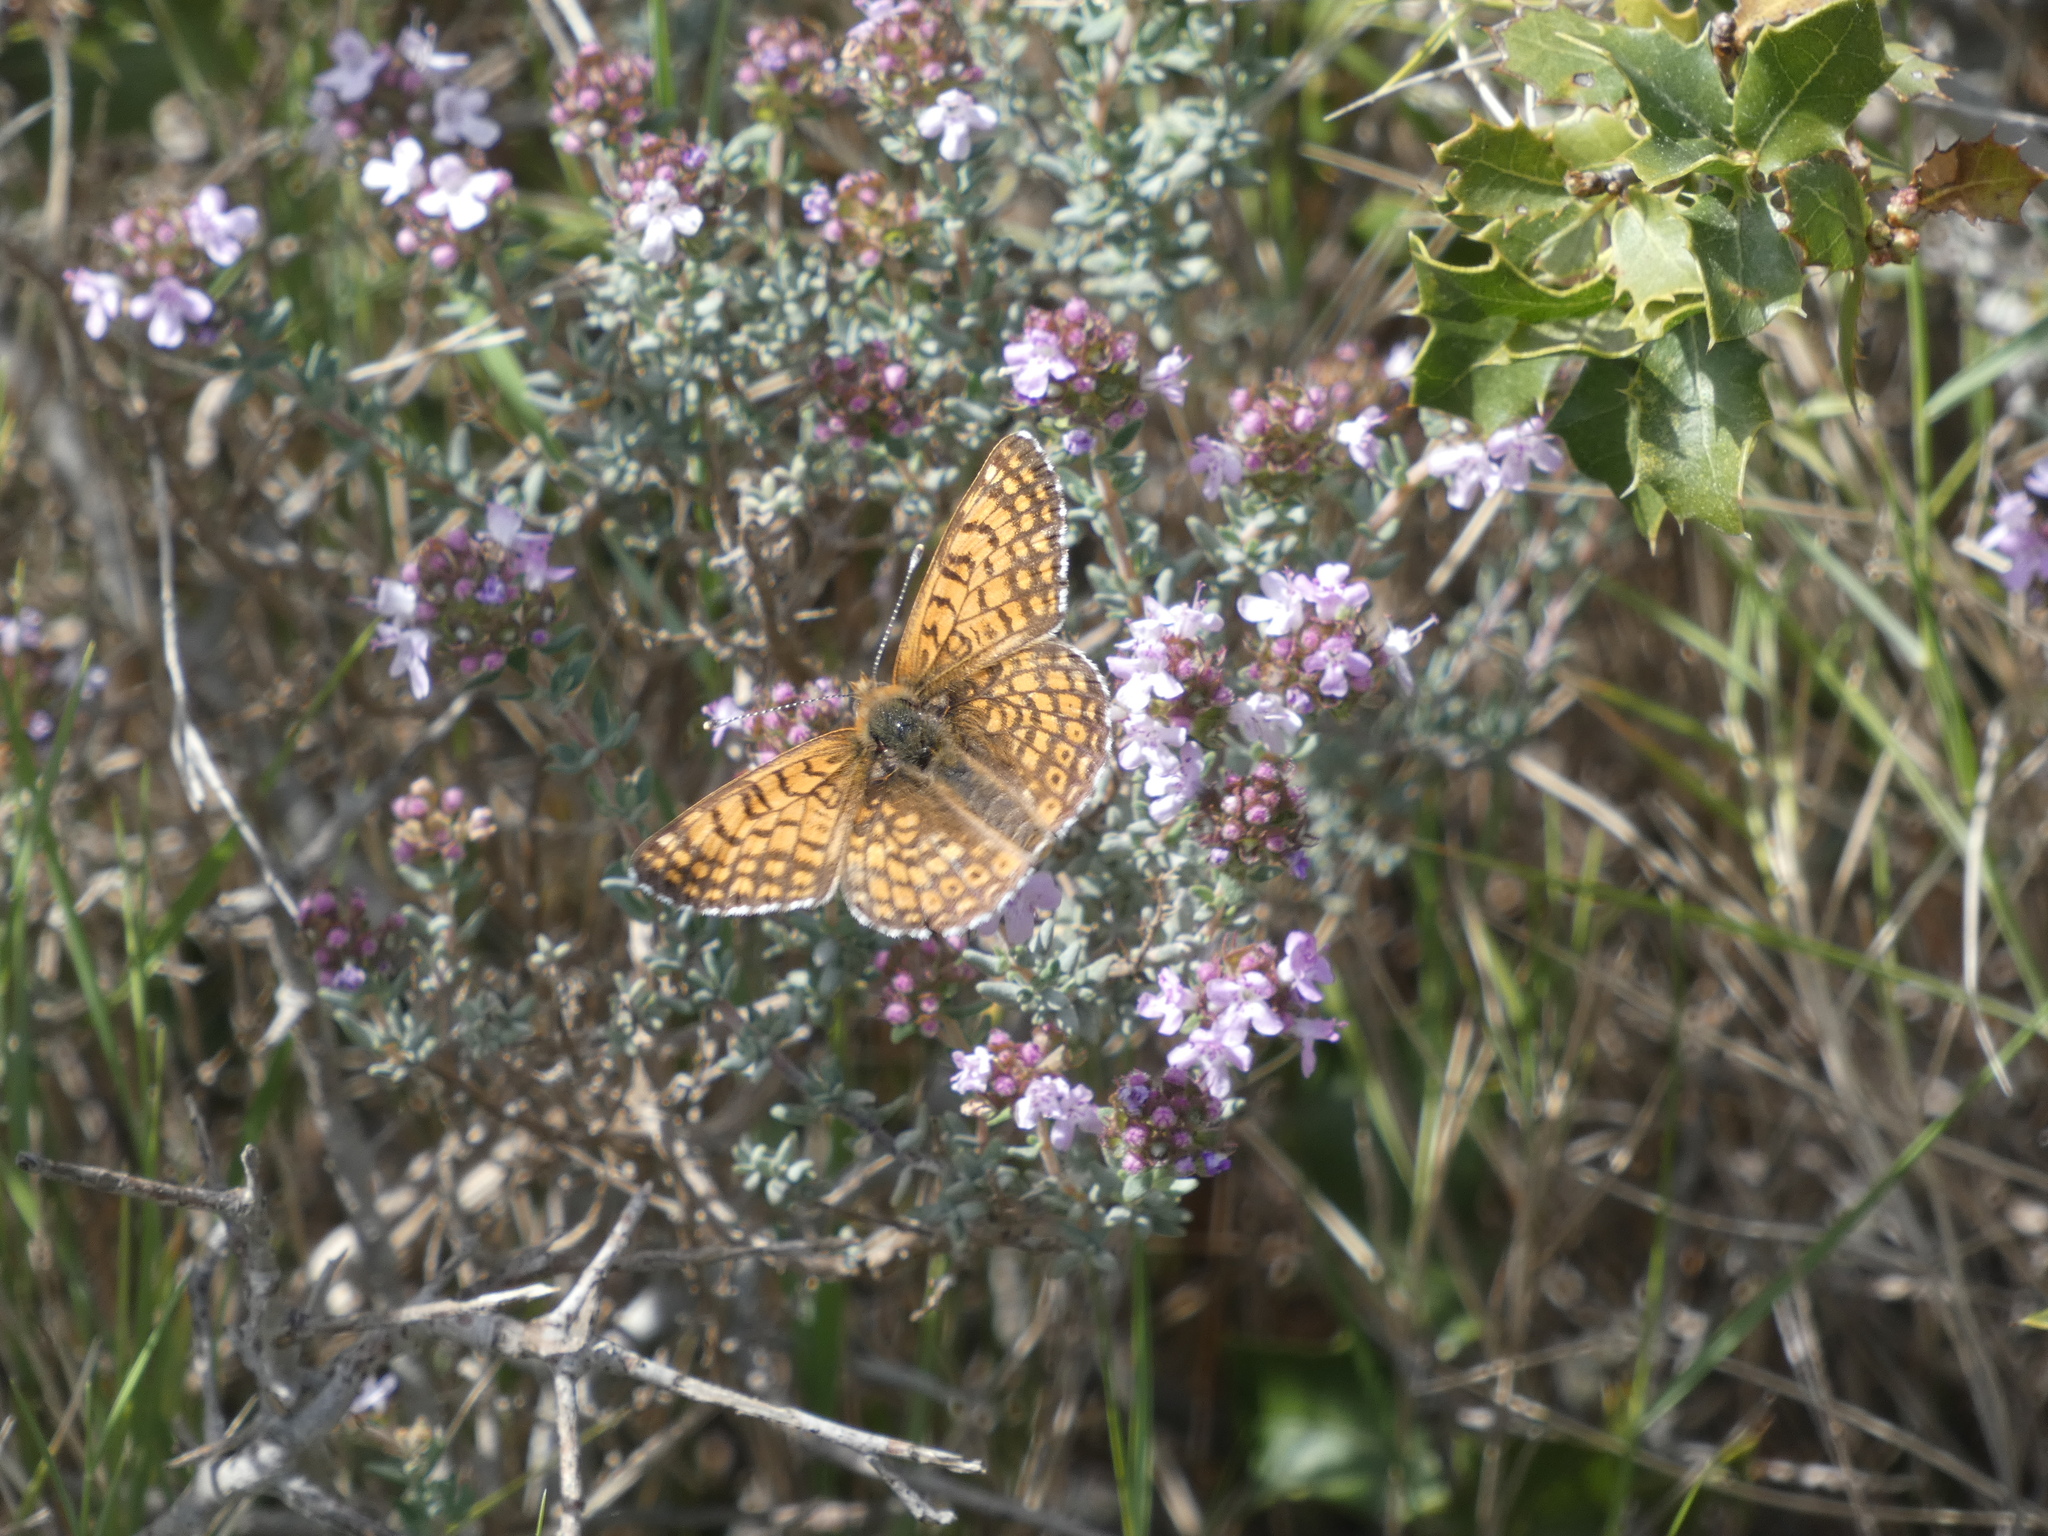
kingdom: Animalia
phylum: Arthropoda
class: Insecta
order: Lepidoptera
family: Nymphalidae
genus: Melitaea
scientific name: Melitaea cinxia
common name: Glanville fritillary
